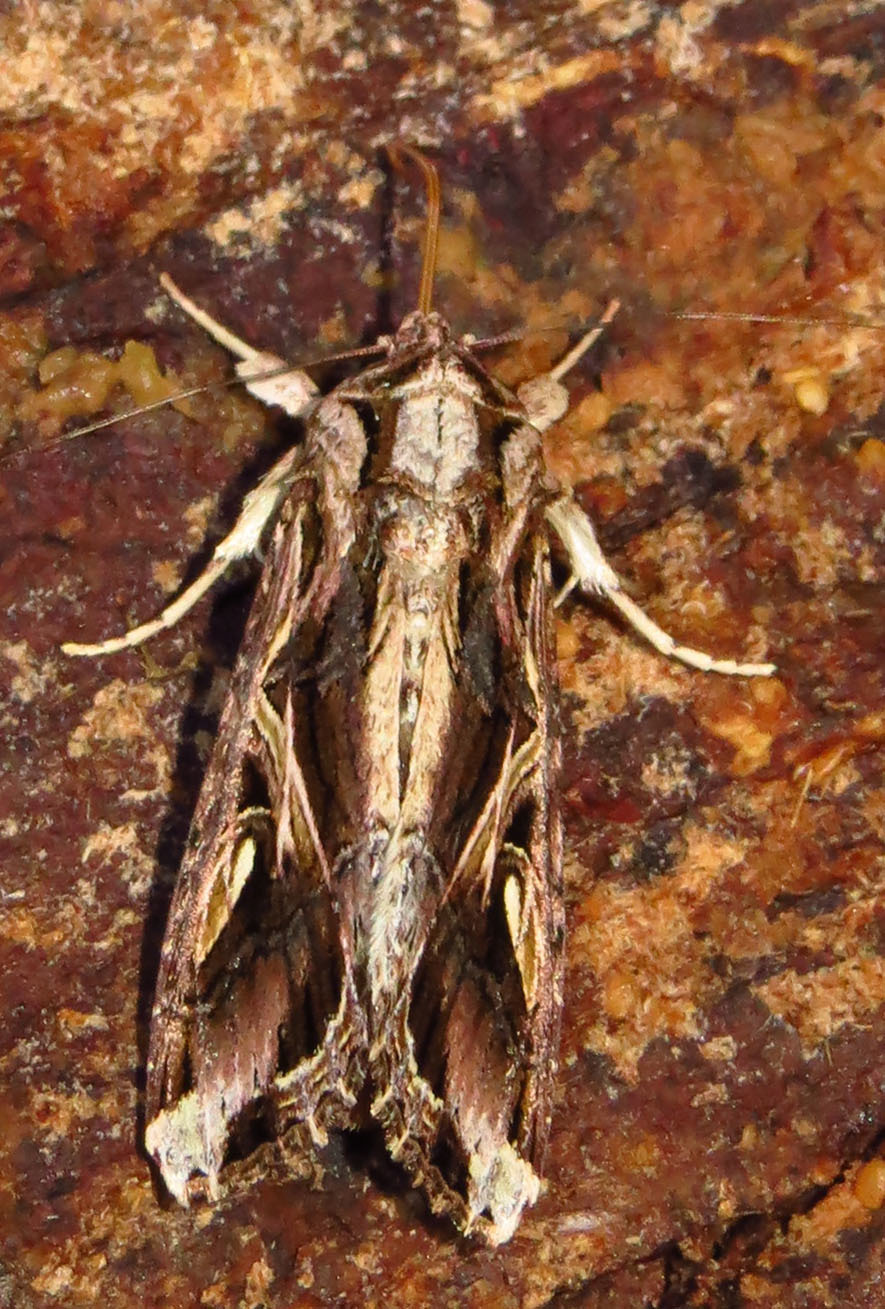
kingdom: Animalia
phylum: Arthropoda
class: Insecta
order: Lepidoptera
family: Noctuidae
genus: Spodoptera
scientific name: Spodoptera dolichos
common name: Sweetpotato armyworm
